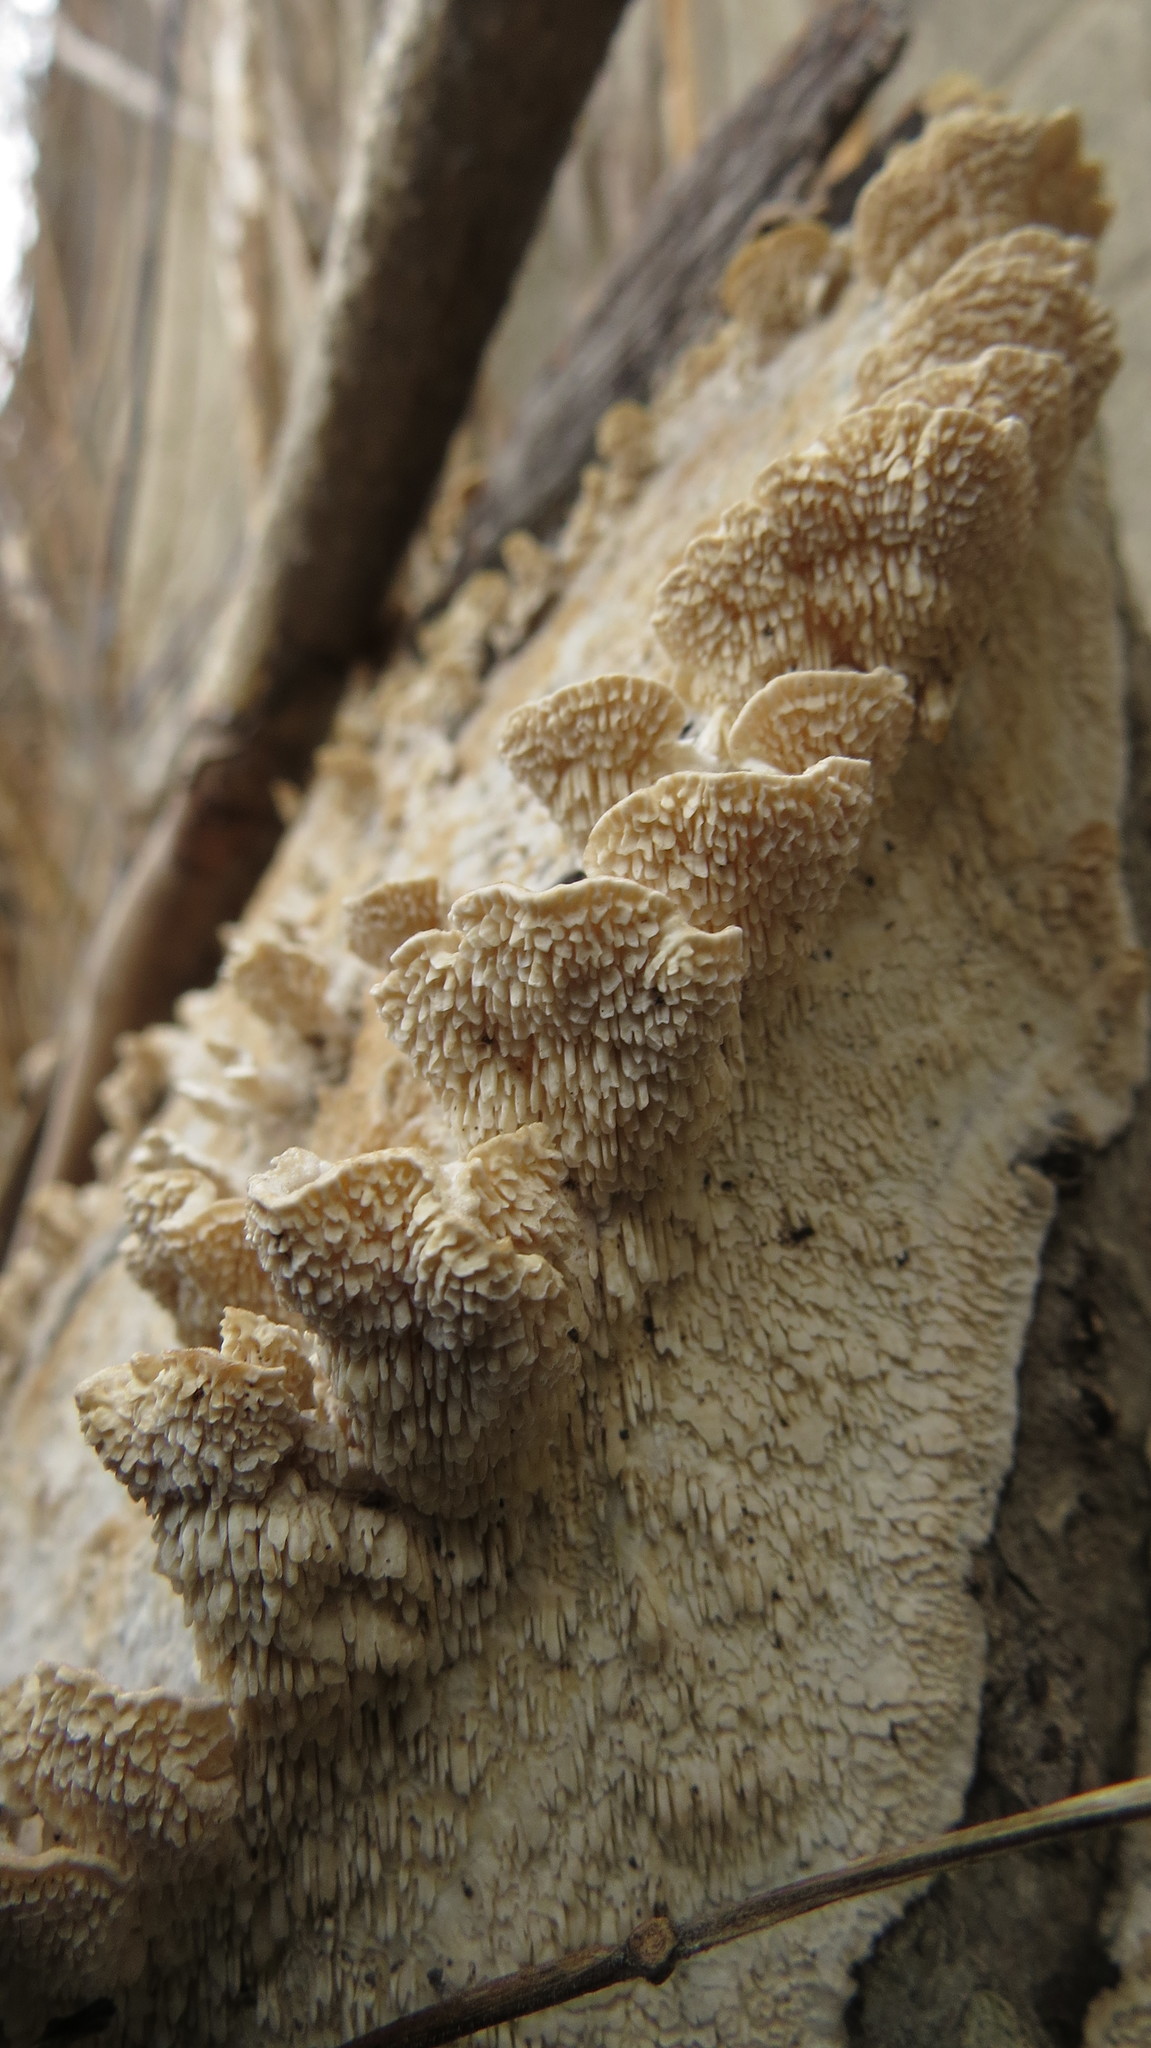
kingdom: Fungi
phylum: Basidiomycota
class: Agaricomycetes
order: Polyporales
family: Irpicaceae
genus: Irpex
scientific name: Irpex lacteus
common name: Milk-white toothed polypore
